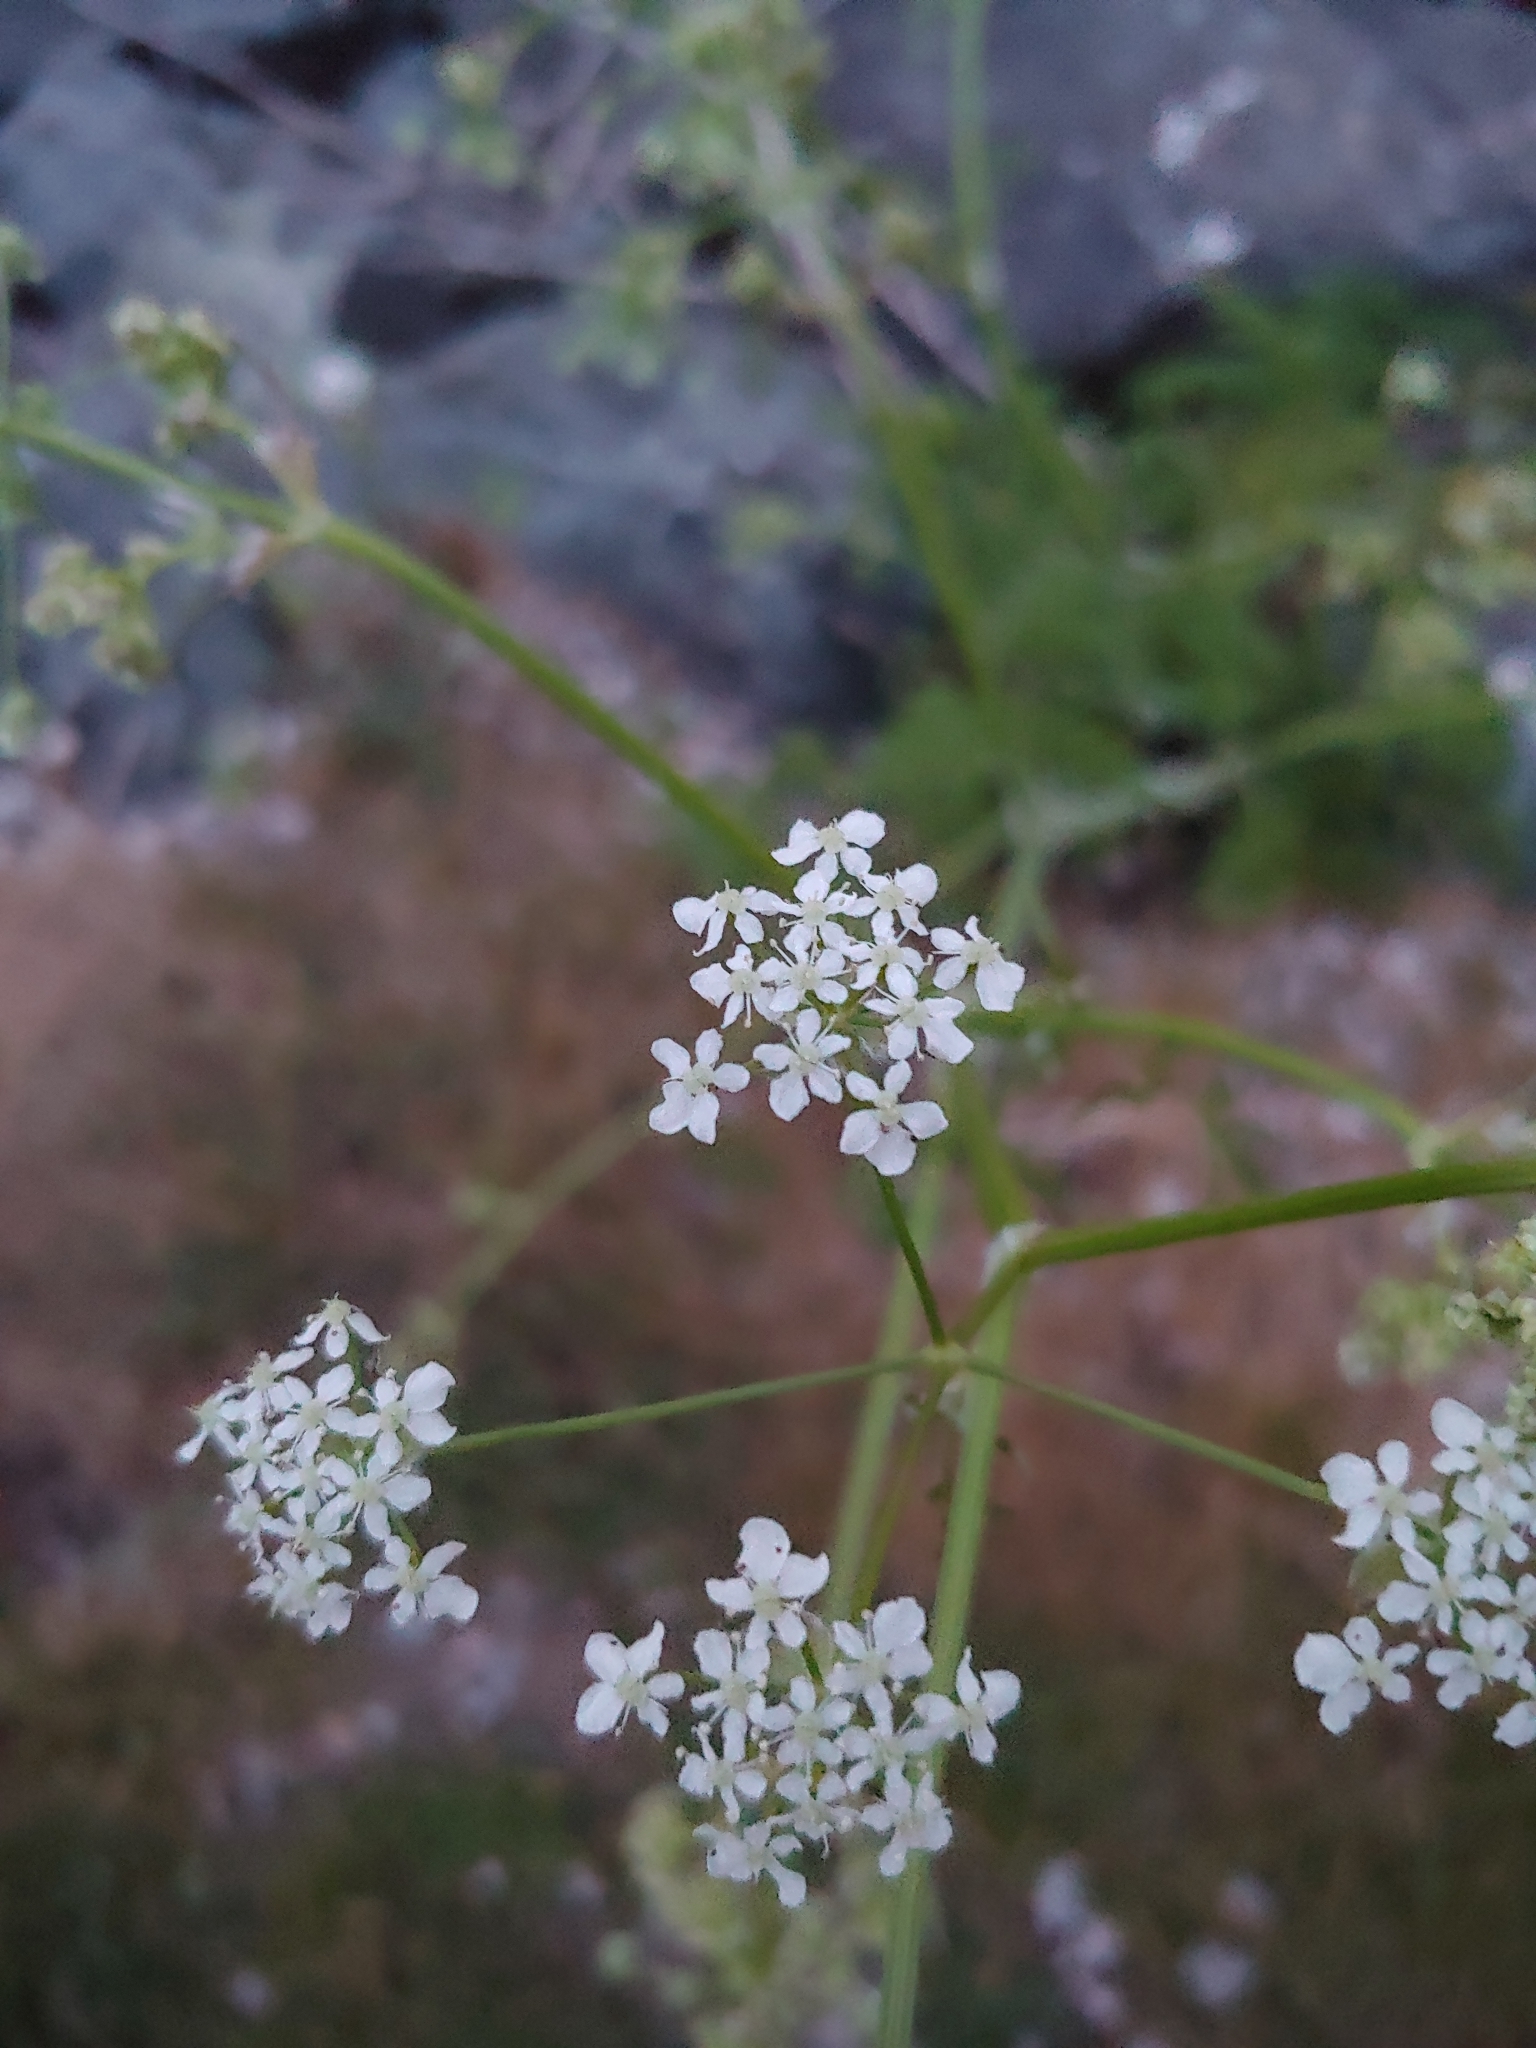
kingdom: Plantae
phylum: Tracheophyta
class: Magnoliopsida
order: Apiales
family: Apiaceae
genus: Anthriscus
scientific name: Anthriscus sylvestris
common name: Cow parsley
